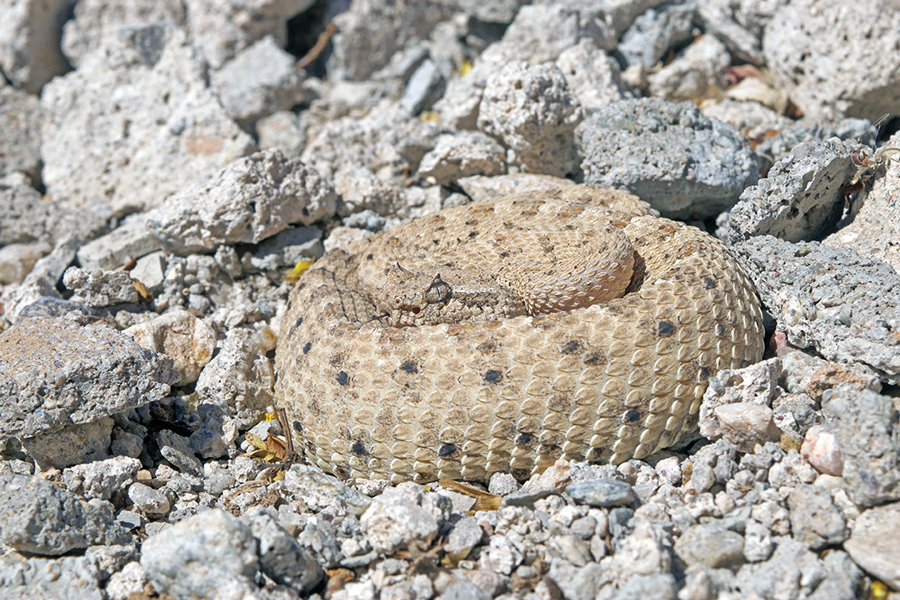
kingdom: Animalia
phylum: Chordata
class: Squamata
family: Viperidae
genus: Crotalus
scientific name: Crotalus cerastes
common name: Sidewinder
